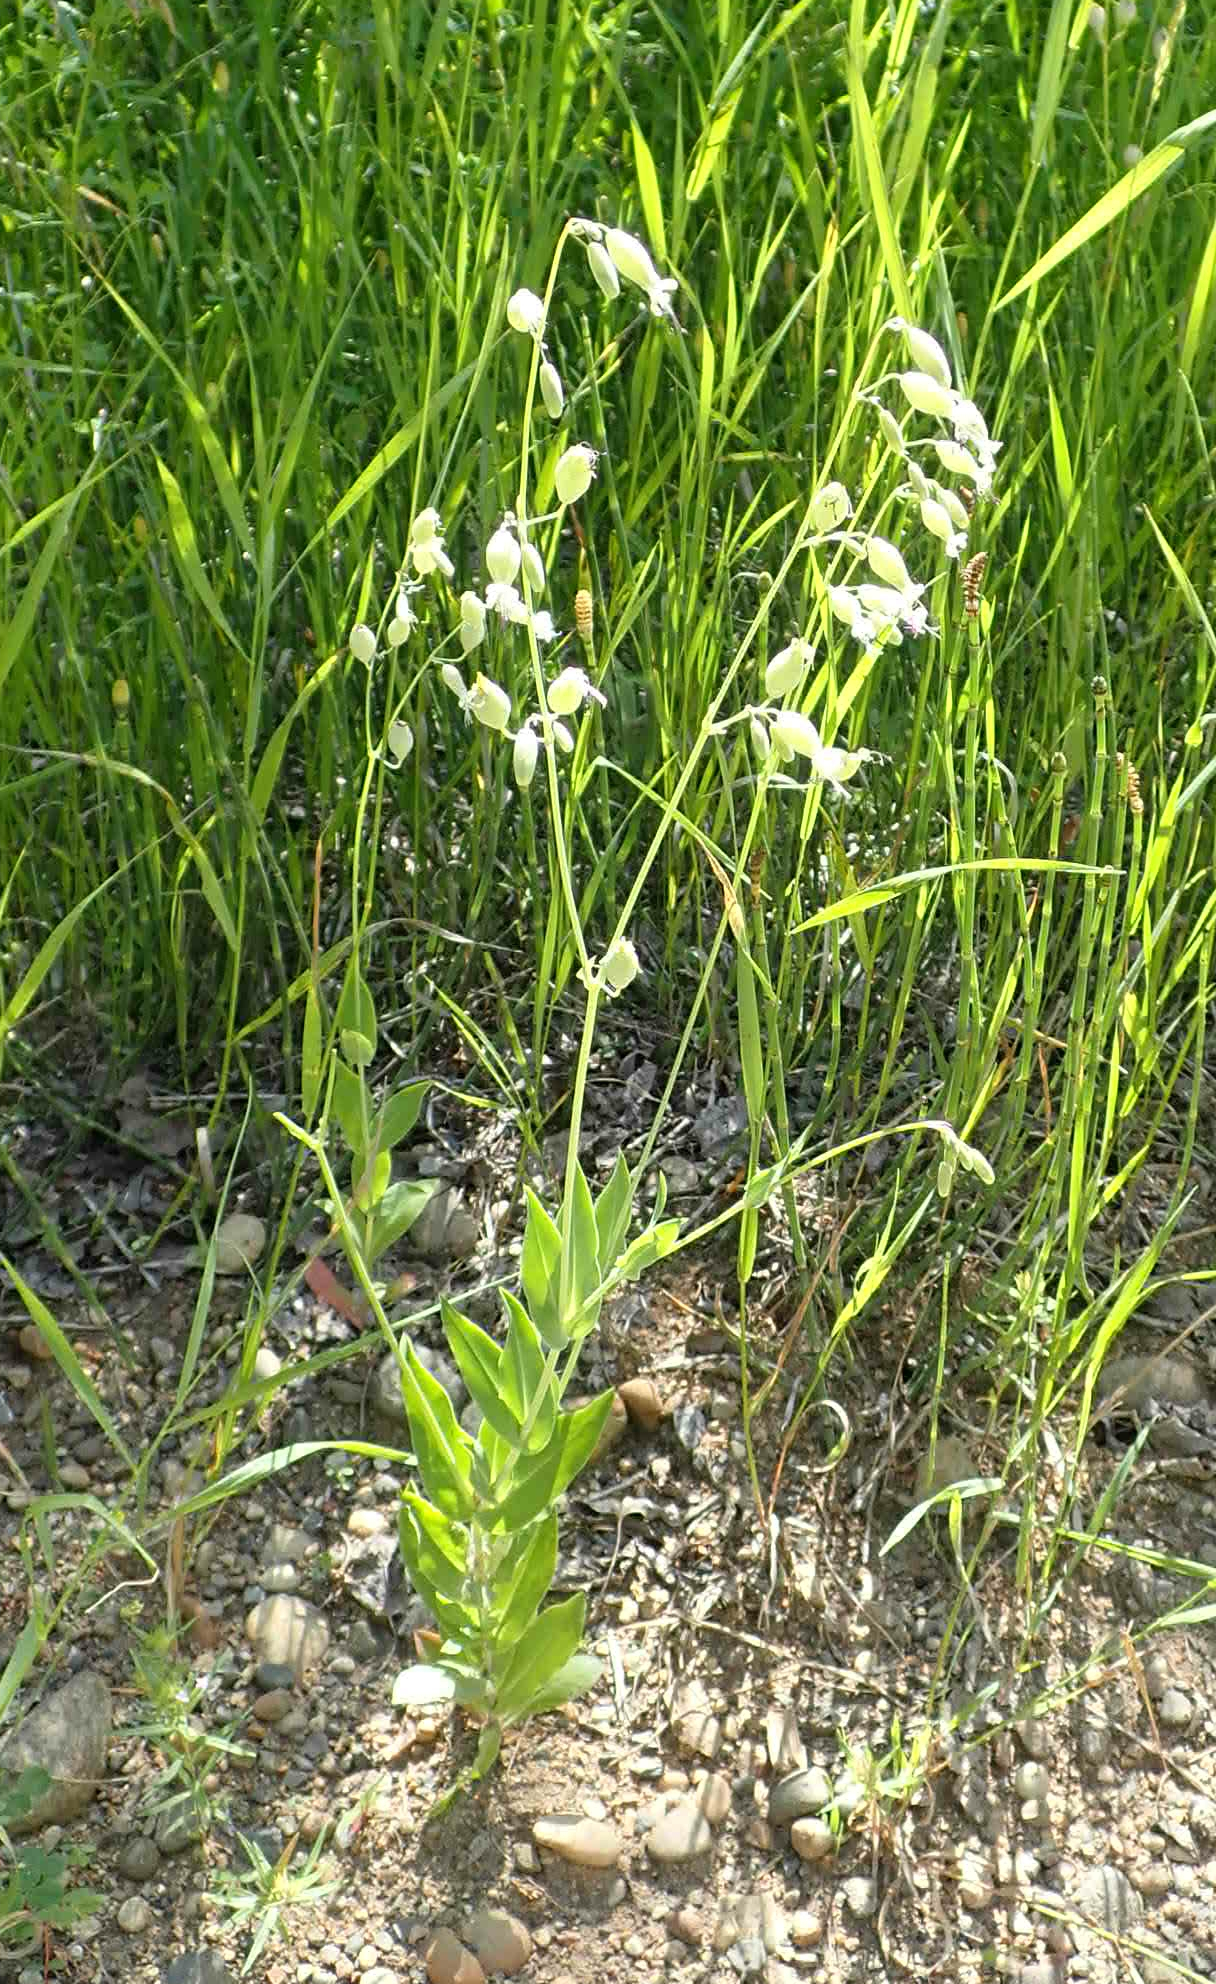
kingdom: Plantae
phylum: Tracheophyta
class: Magnoliopsida
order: Caryophyllales
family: Caryophyllaceae
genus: Silene
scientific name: Silene vulgaris
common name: Bladder campion
